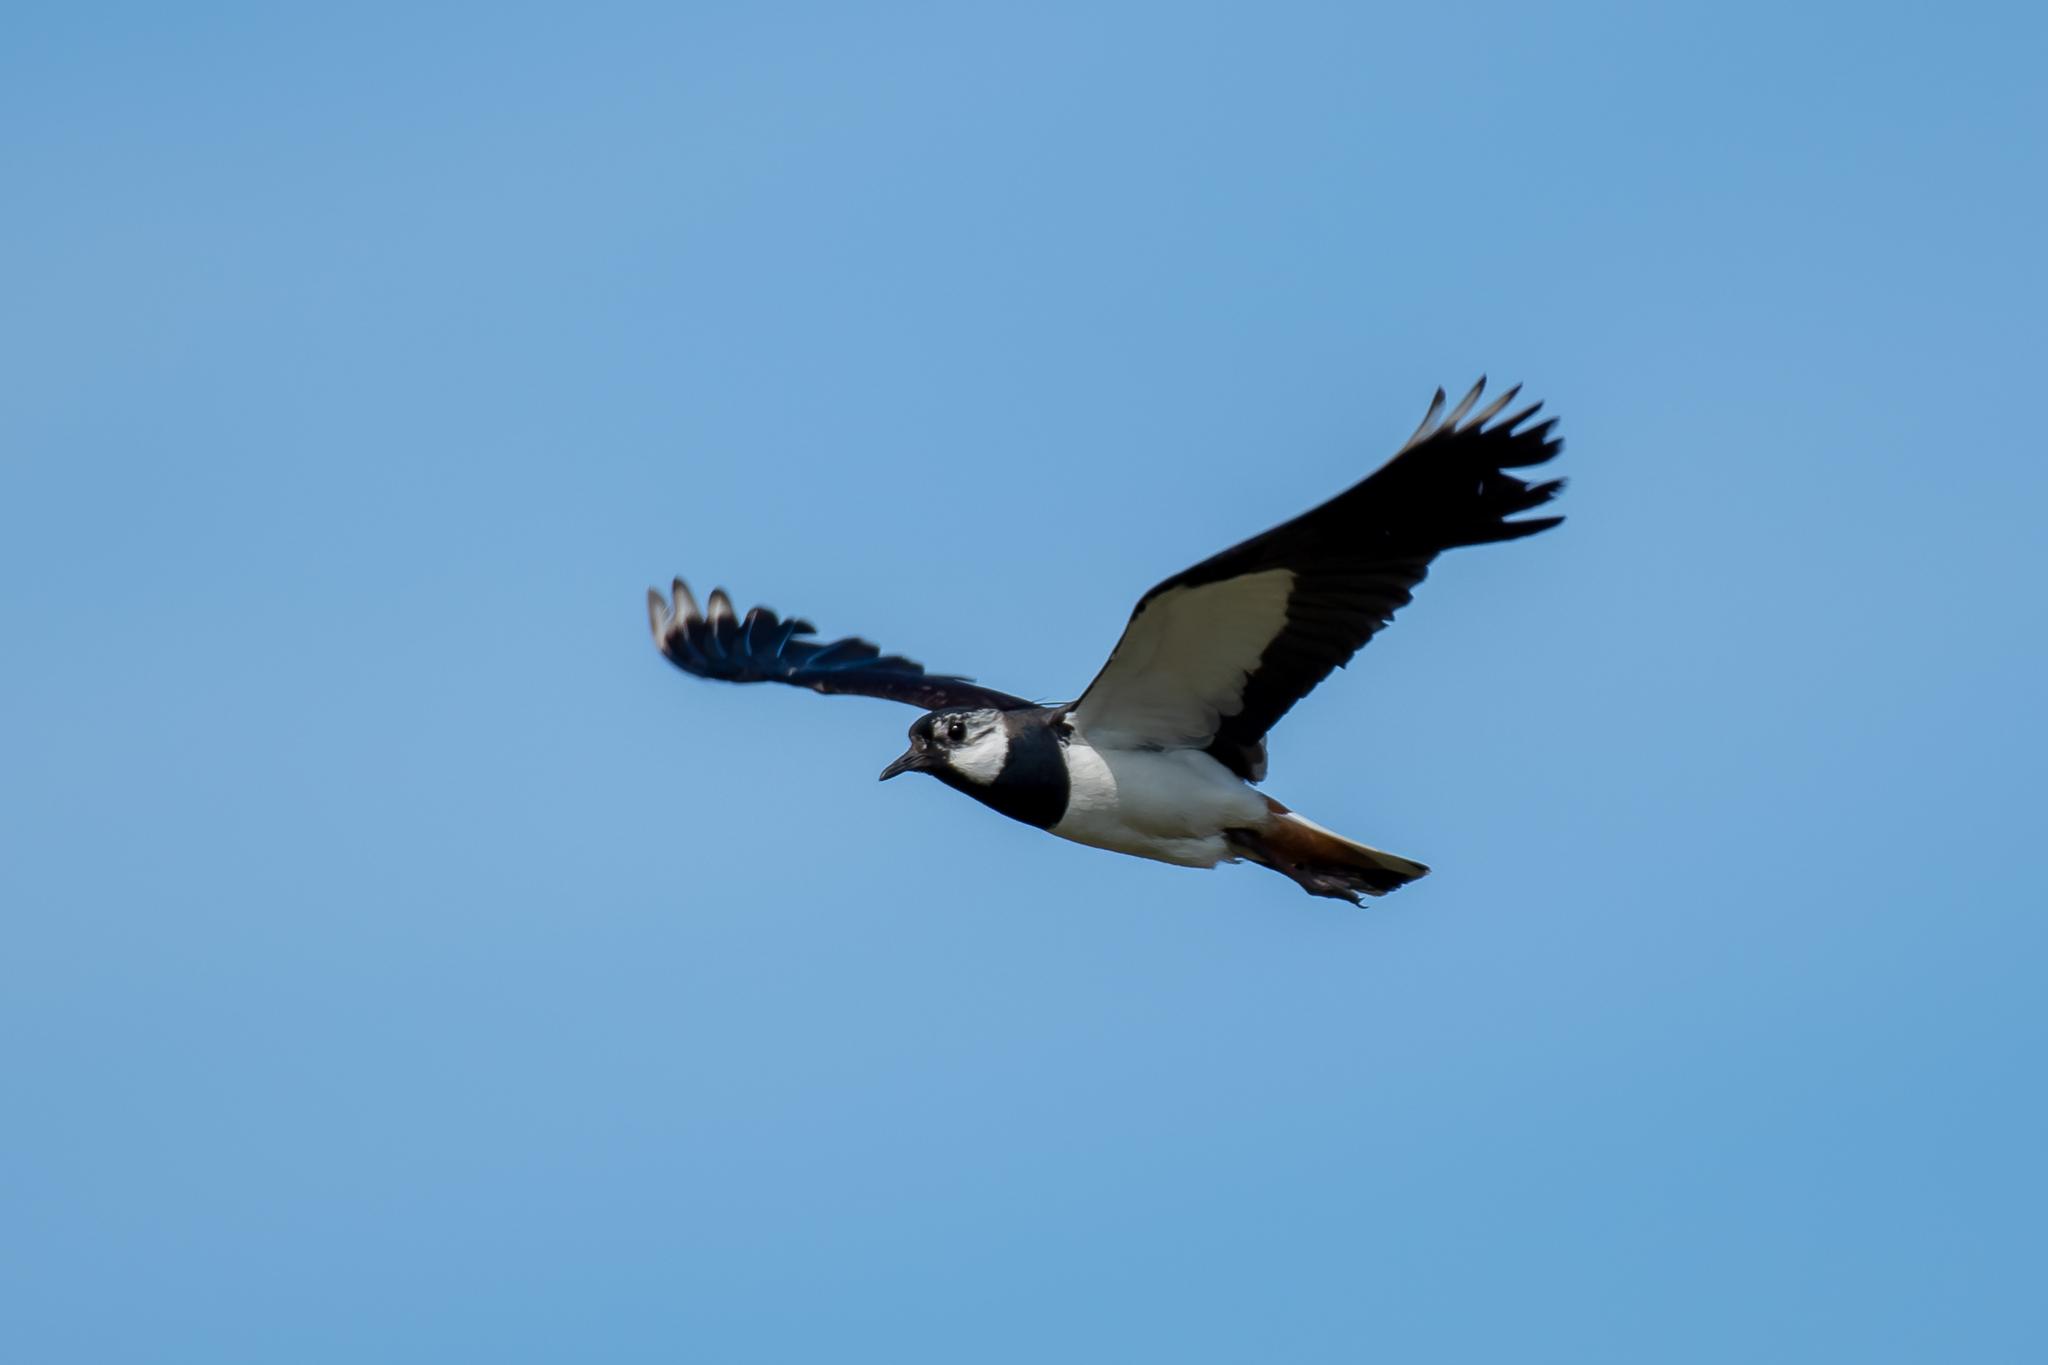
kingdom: Animalia
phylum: Chordata
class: Aves
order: Charadriiformes
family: Charadriidae
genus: Vanellus
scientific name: Vanellus vanellus
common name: Northern lapwing
